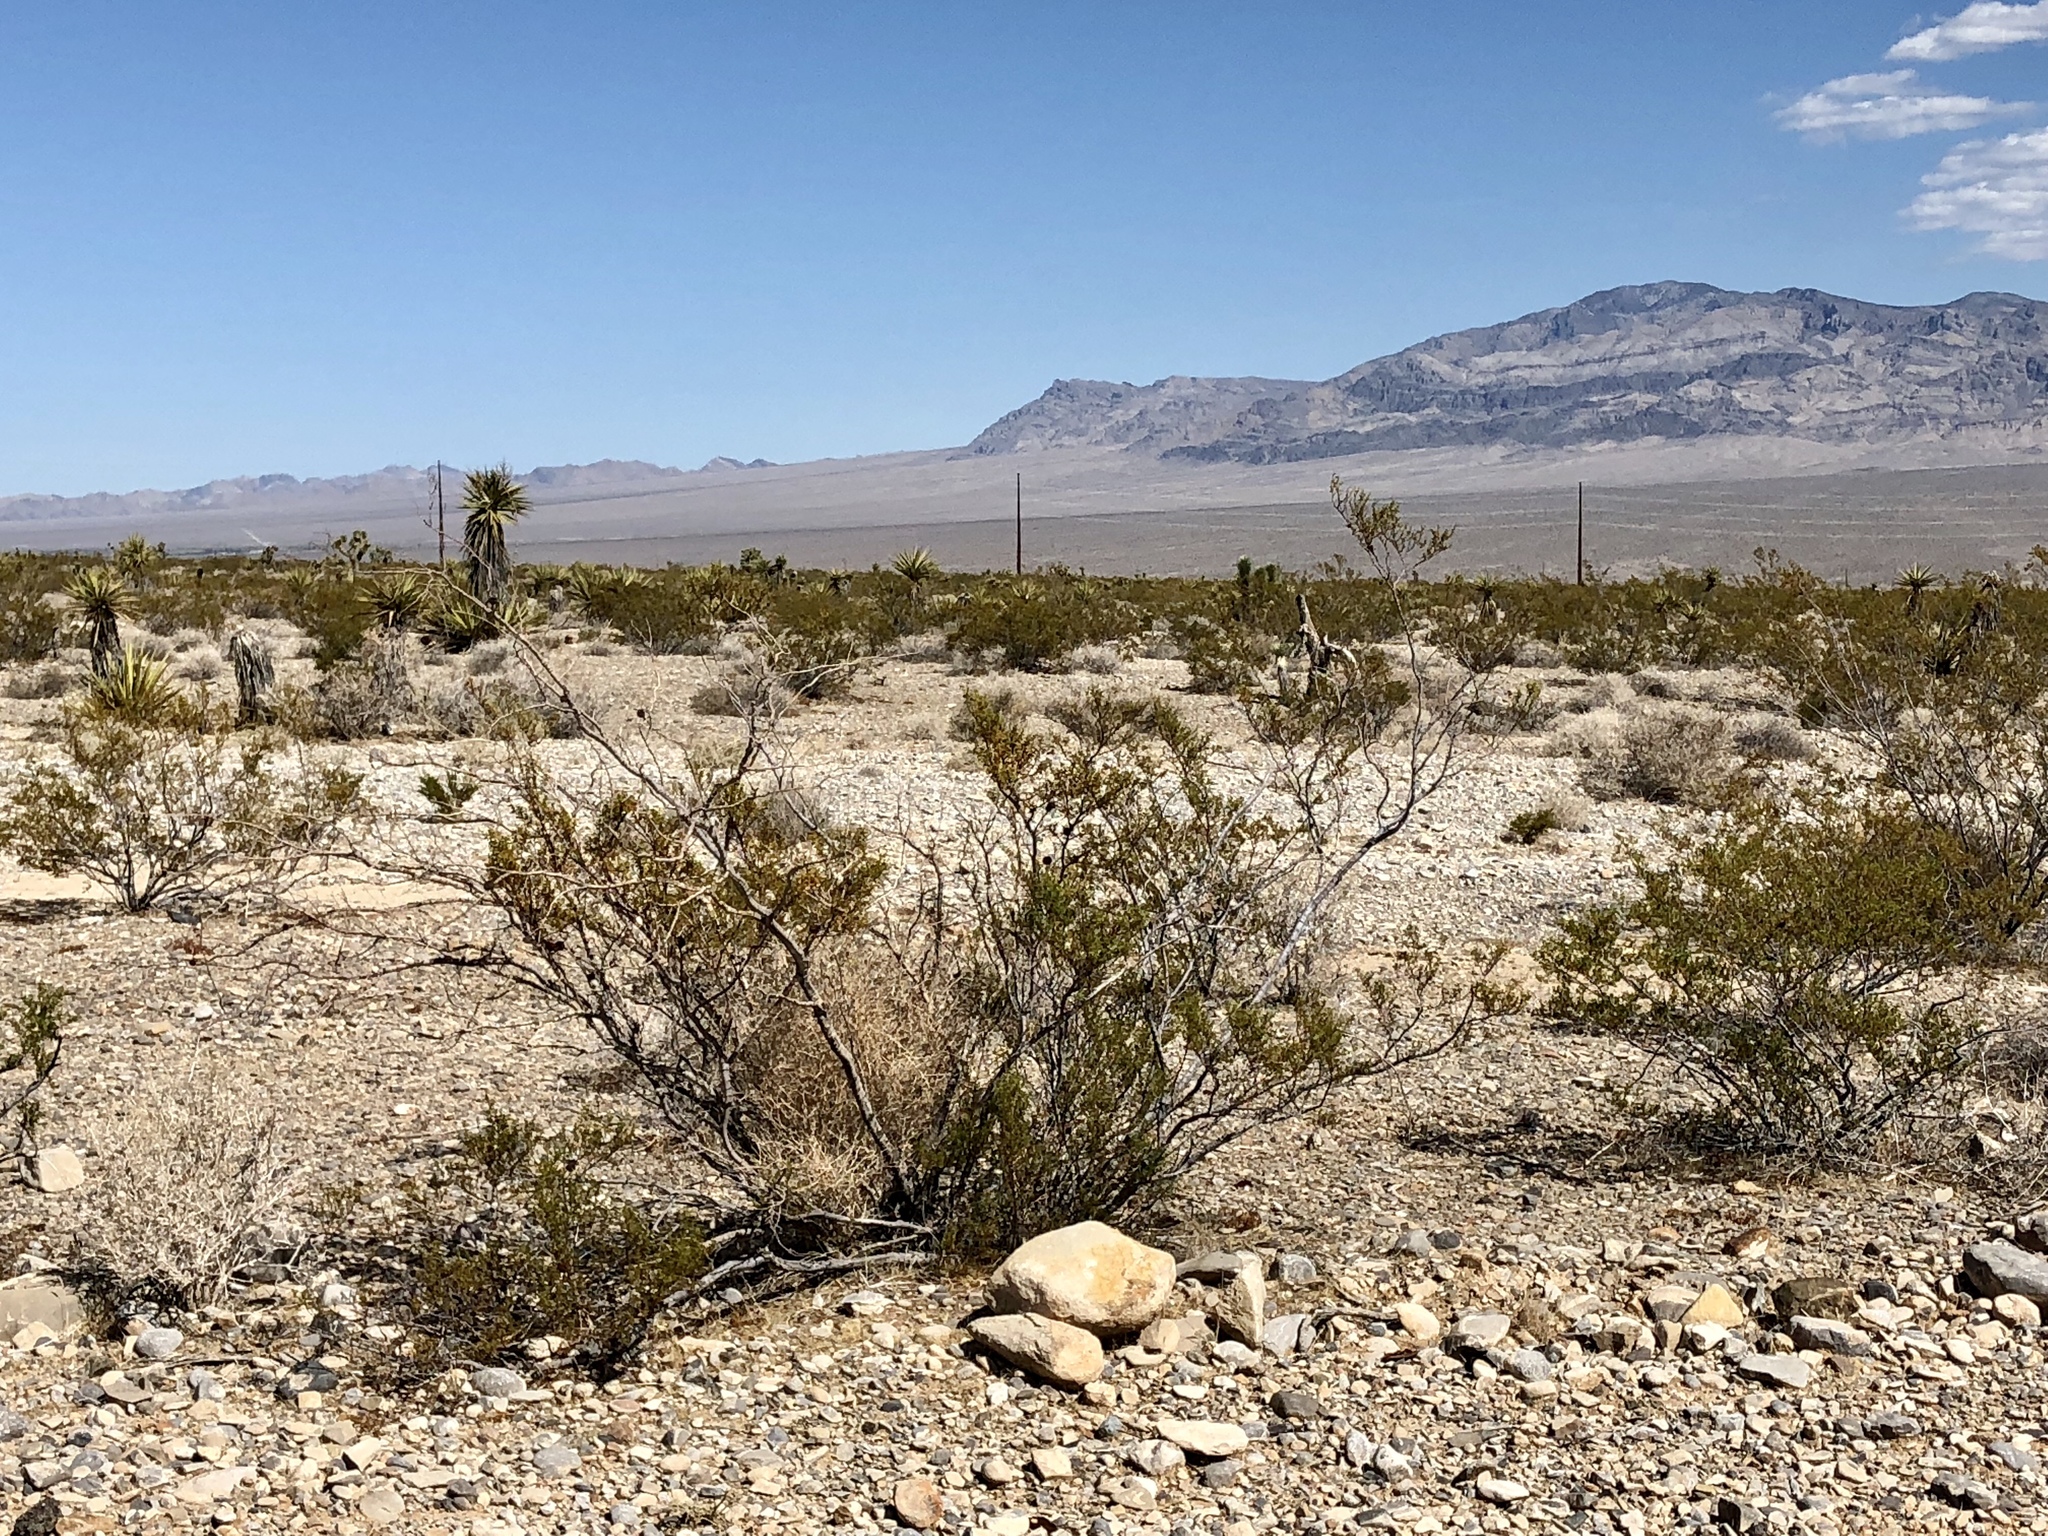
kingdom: Plantae
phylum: Tracheophyta
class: Magnoliopsida
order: Zygophyllales
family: Zygophyllaceae
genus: Larrea
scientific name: Larrea tridentata
